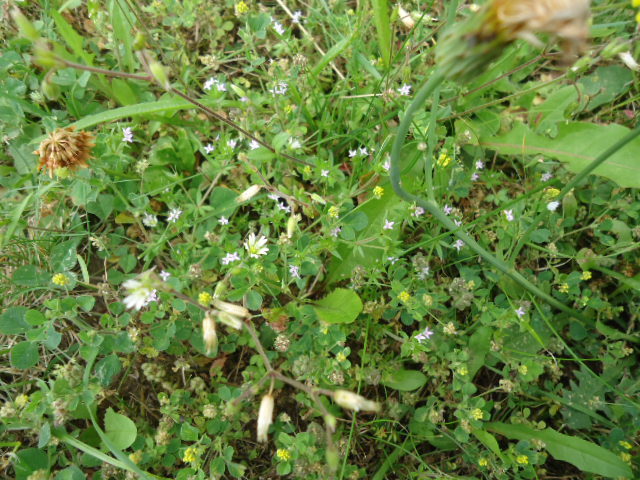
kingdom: Plantae
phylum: Tracheophyta
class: Magnoliopsida
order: Gentianales
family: Rubiaceae
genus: Sherardia
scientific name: Sherardia arvensis
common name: Field madder
